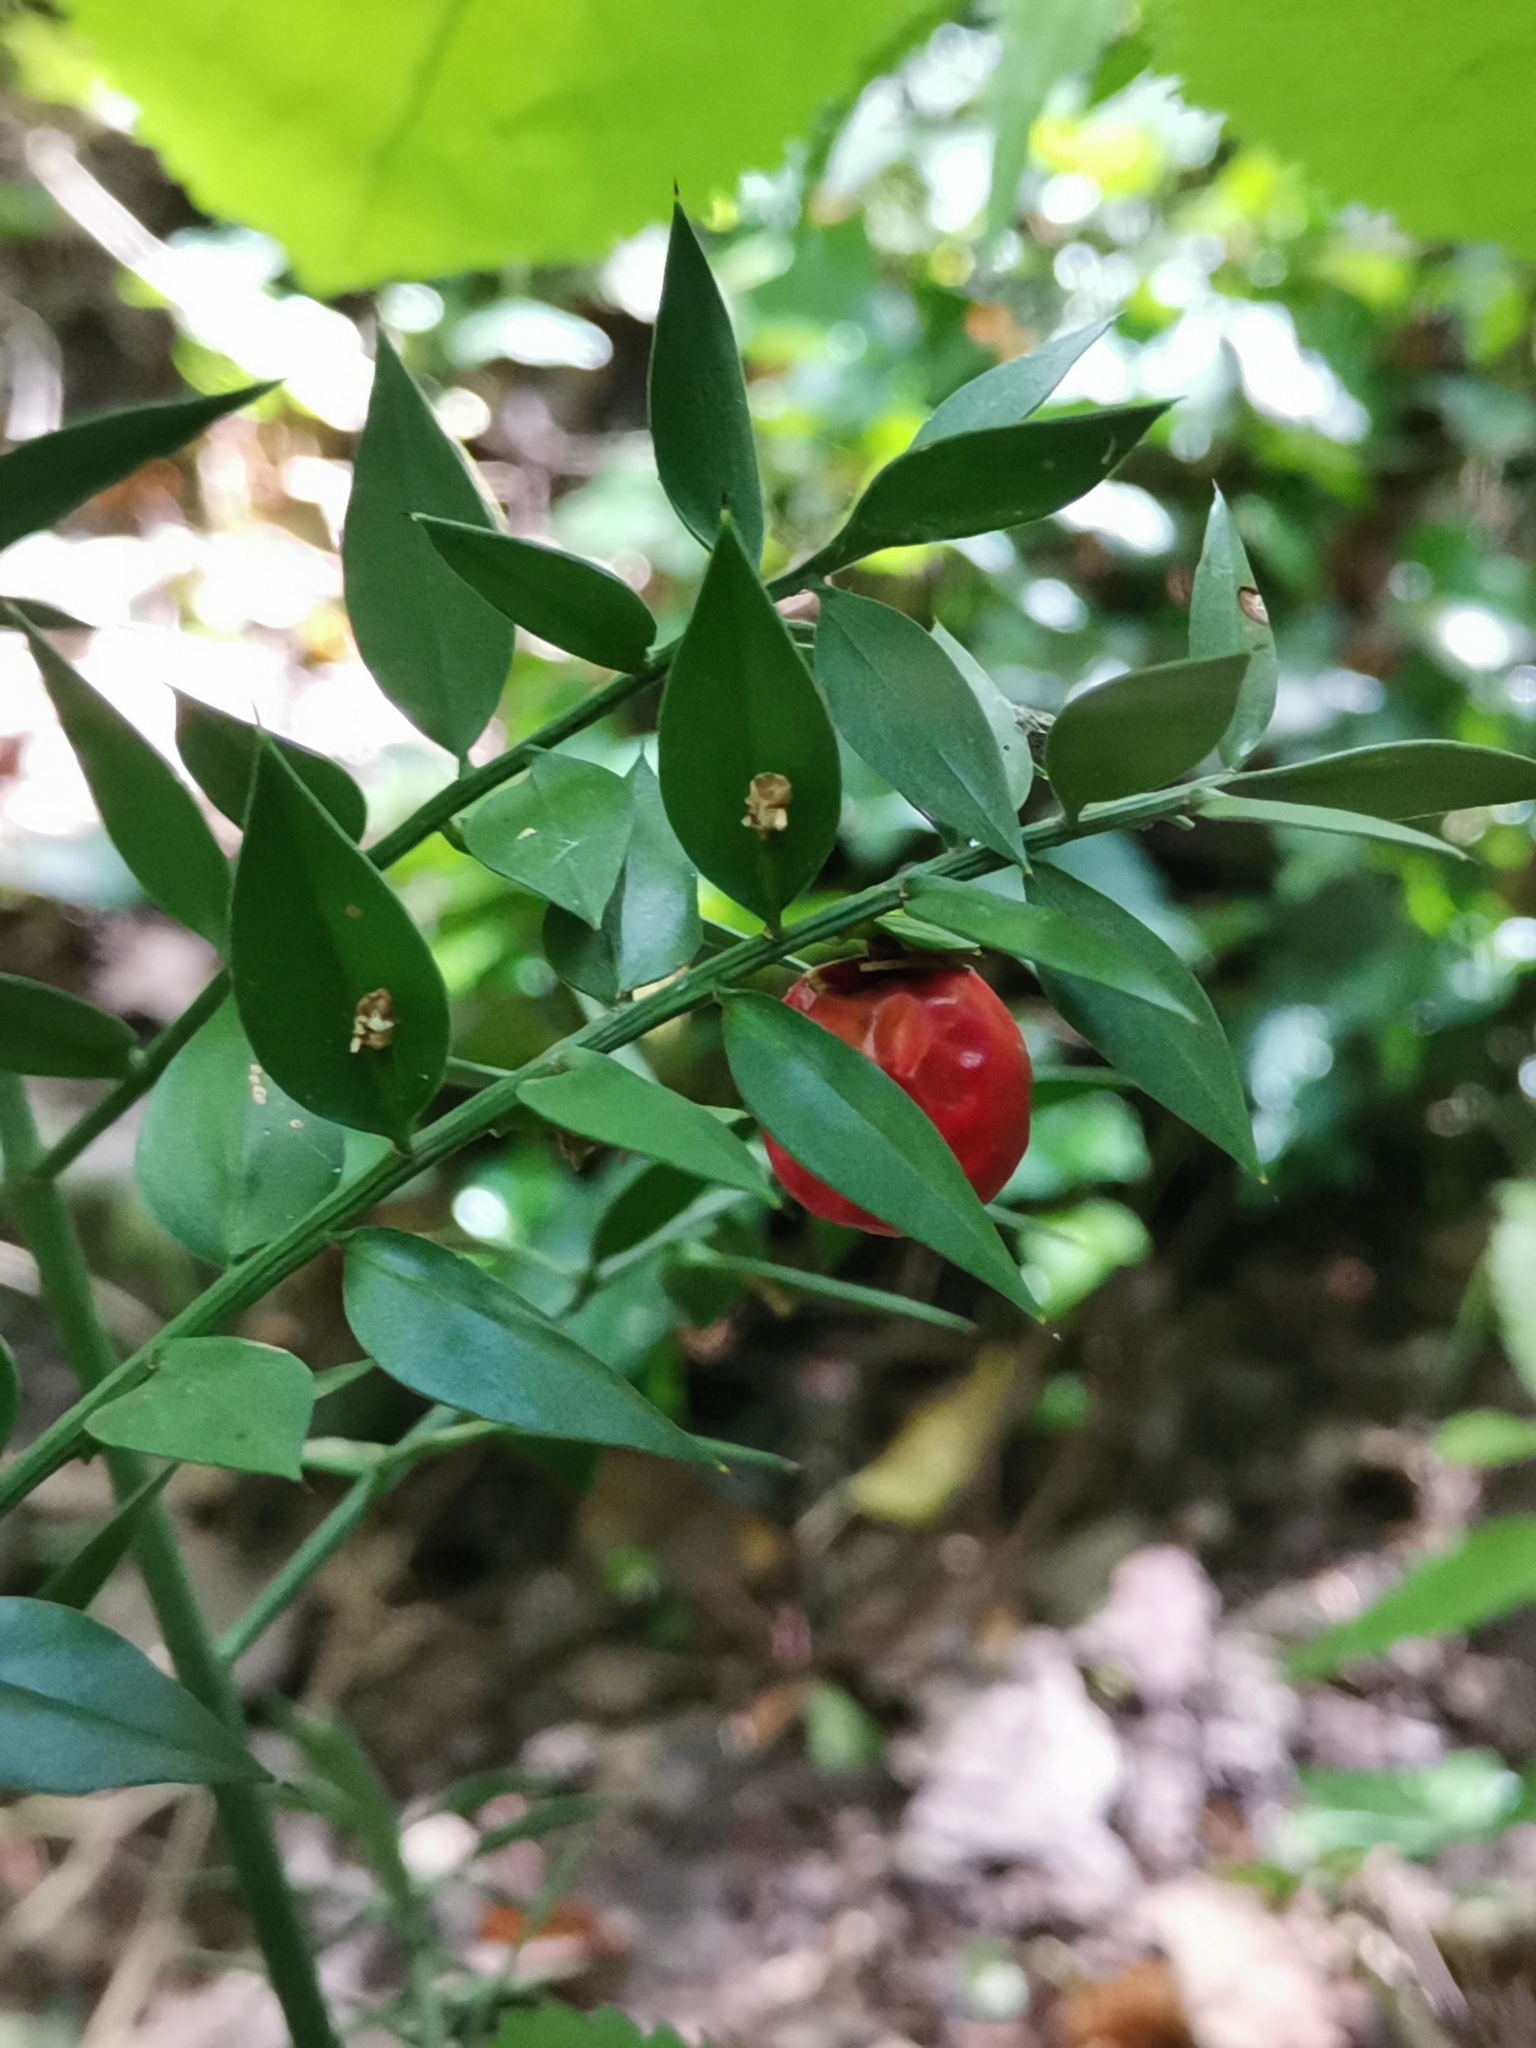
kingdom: Plantae
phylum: Tracheophyta
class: Liliopsida
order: Asparagales
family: Asparagaceae
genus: Ruscus
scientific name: Ruscus aculeatus
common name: Butcher's-broom
